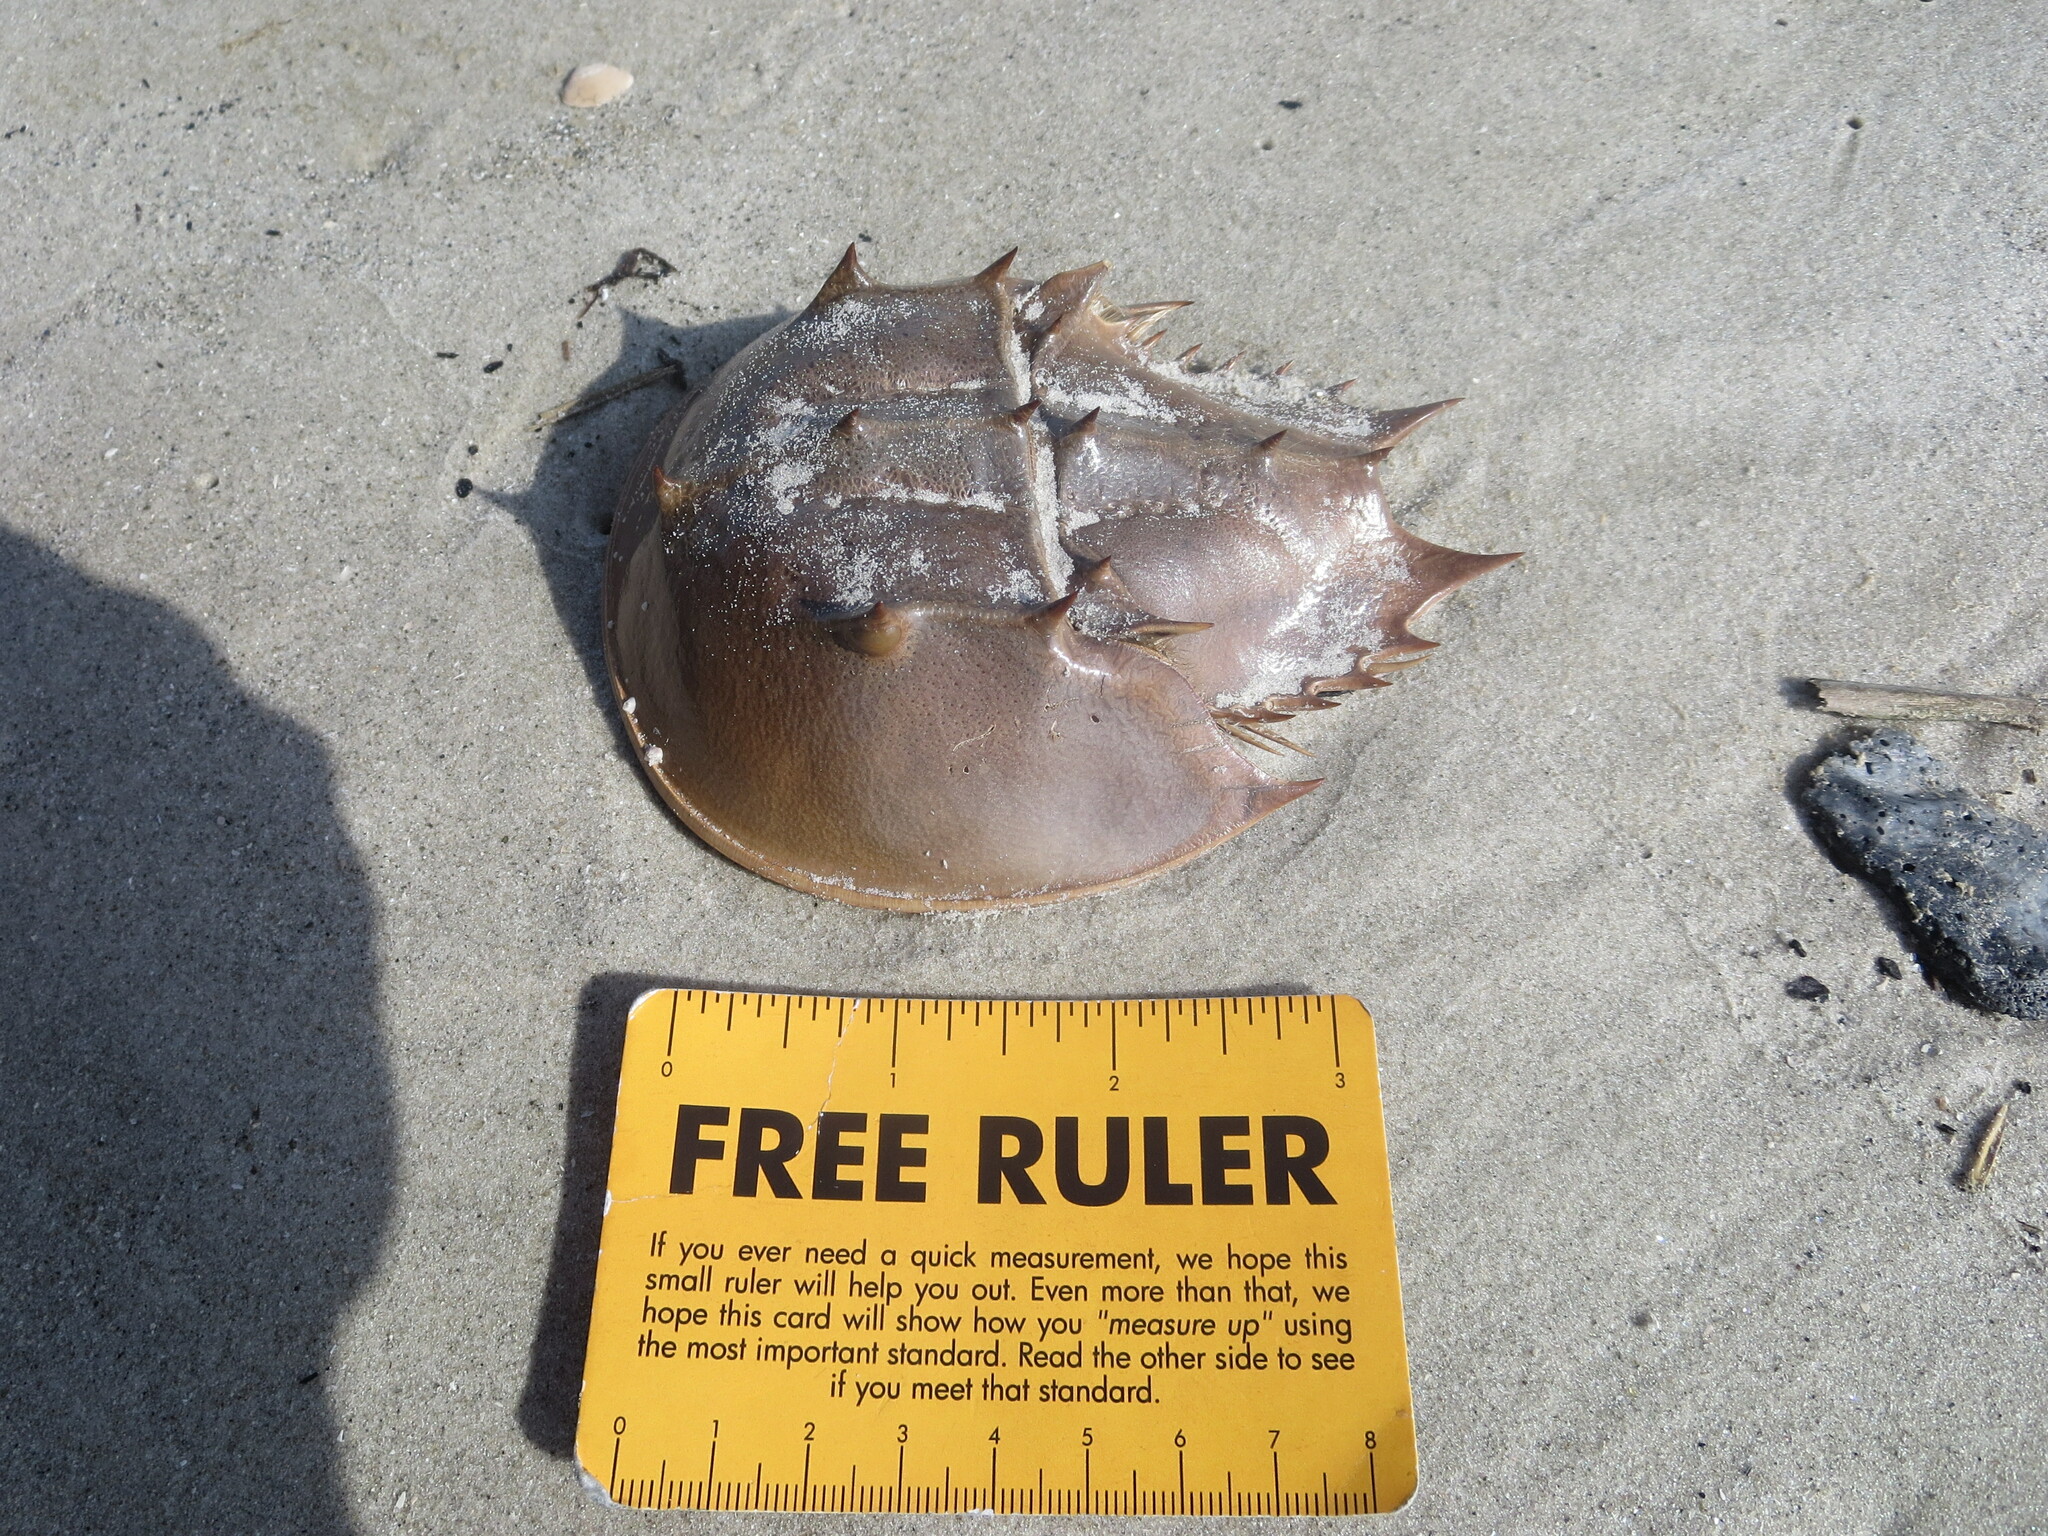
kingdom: Animalia
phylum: Arthropoda
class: Merostomata
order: Xiphosurida
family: Limulidae
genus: Limulus
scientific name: Limulus polyphemus
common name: Horseshoe crab
